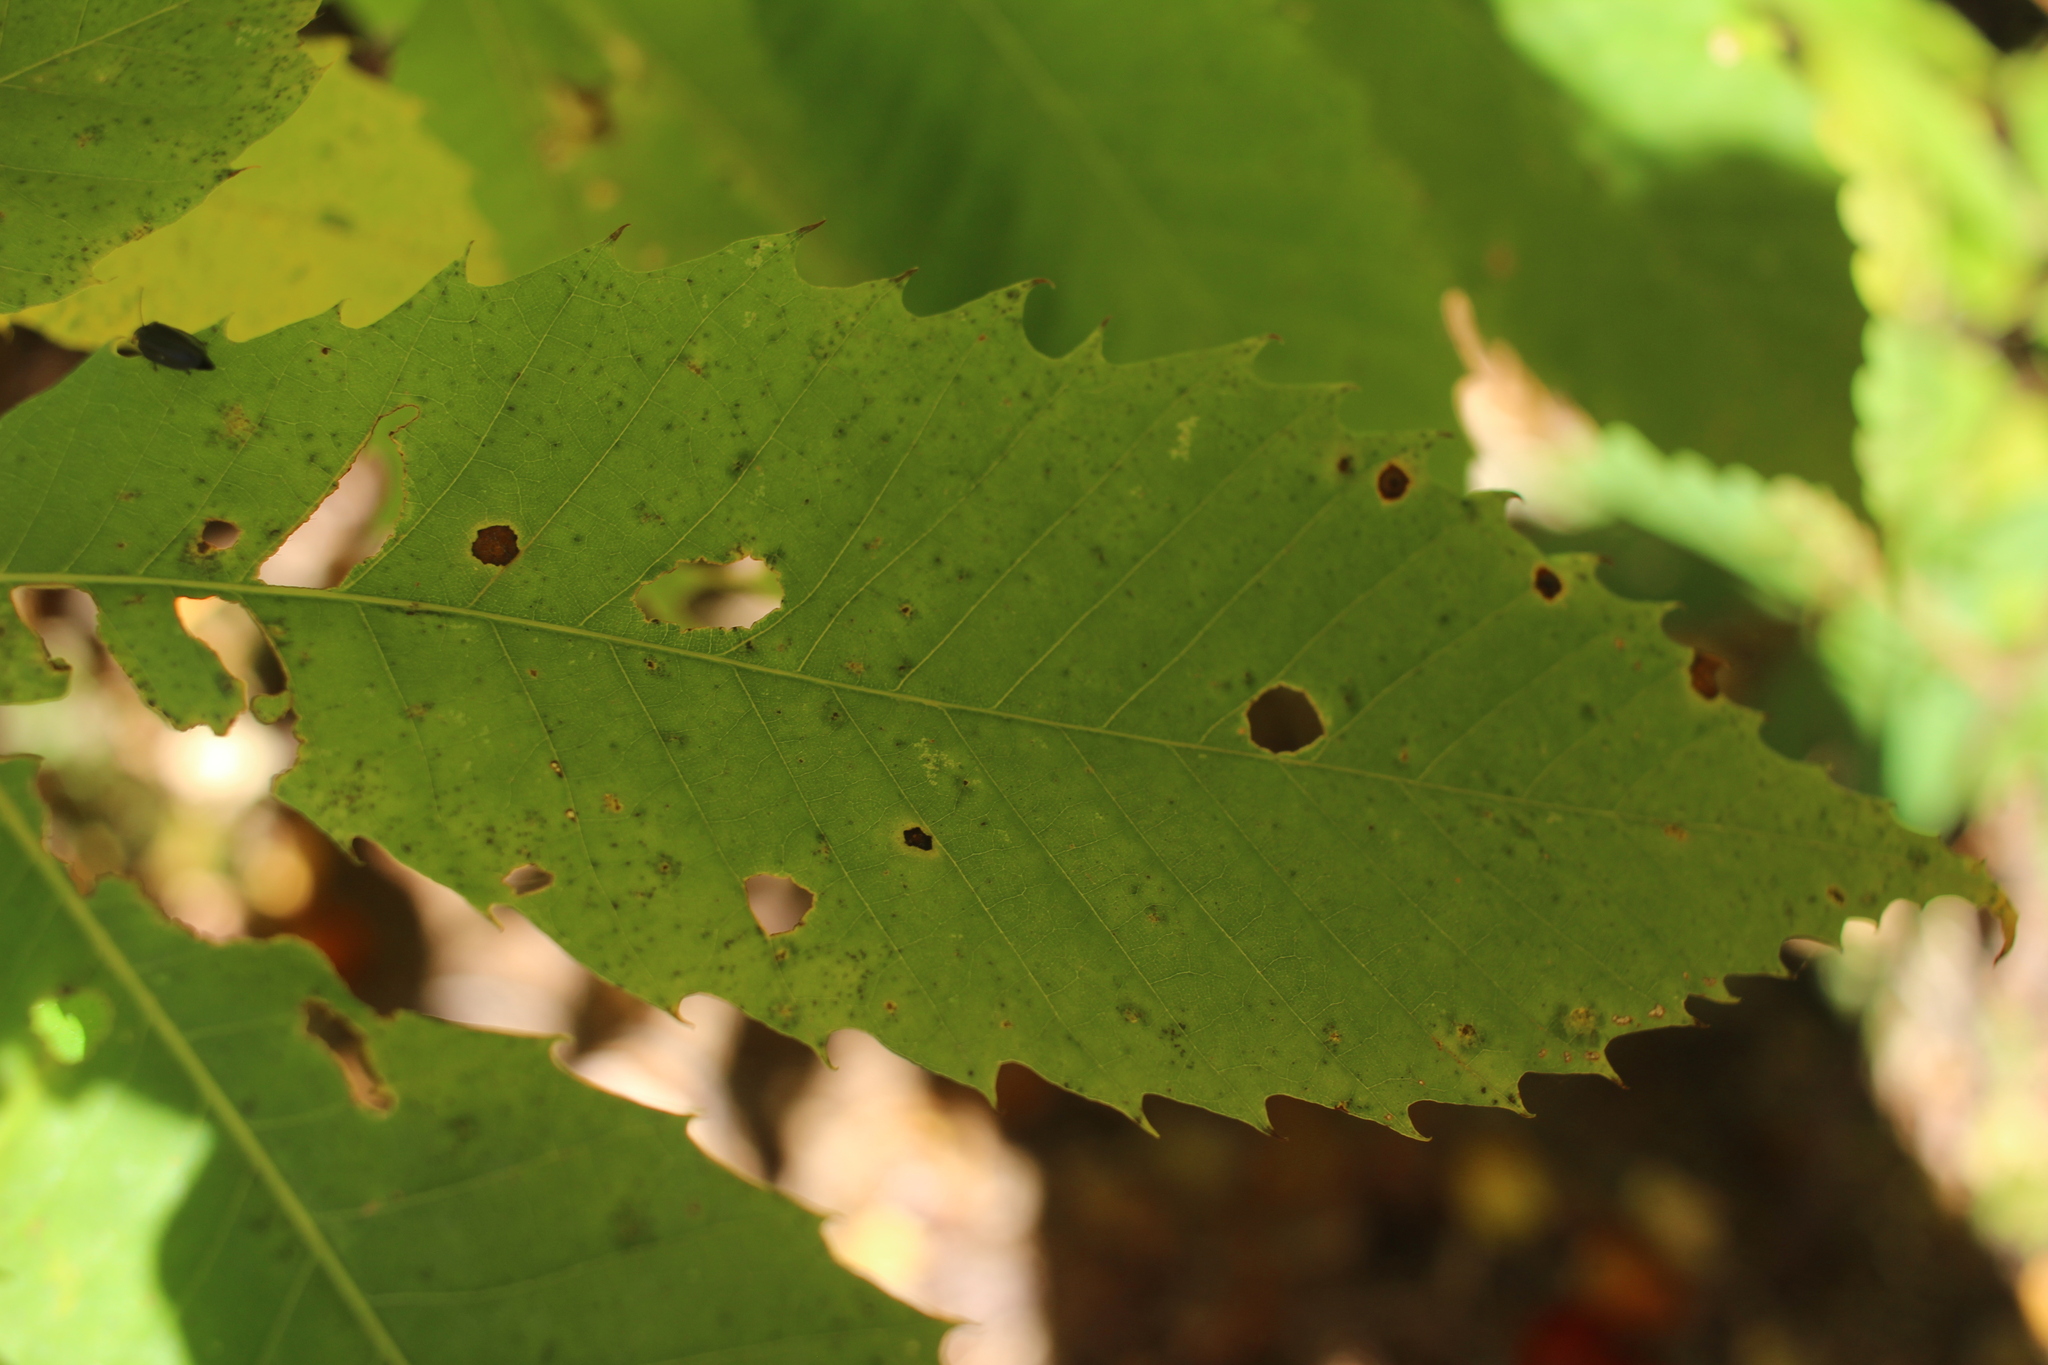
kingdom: Plantae
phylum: Tracheophyta
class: Magnoliopsida
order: Fagales
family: Fagaceae
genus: Castanea
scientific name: Castanea dentata
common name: American chestnut
